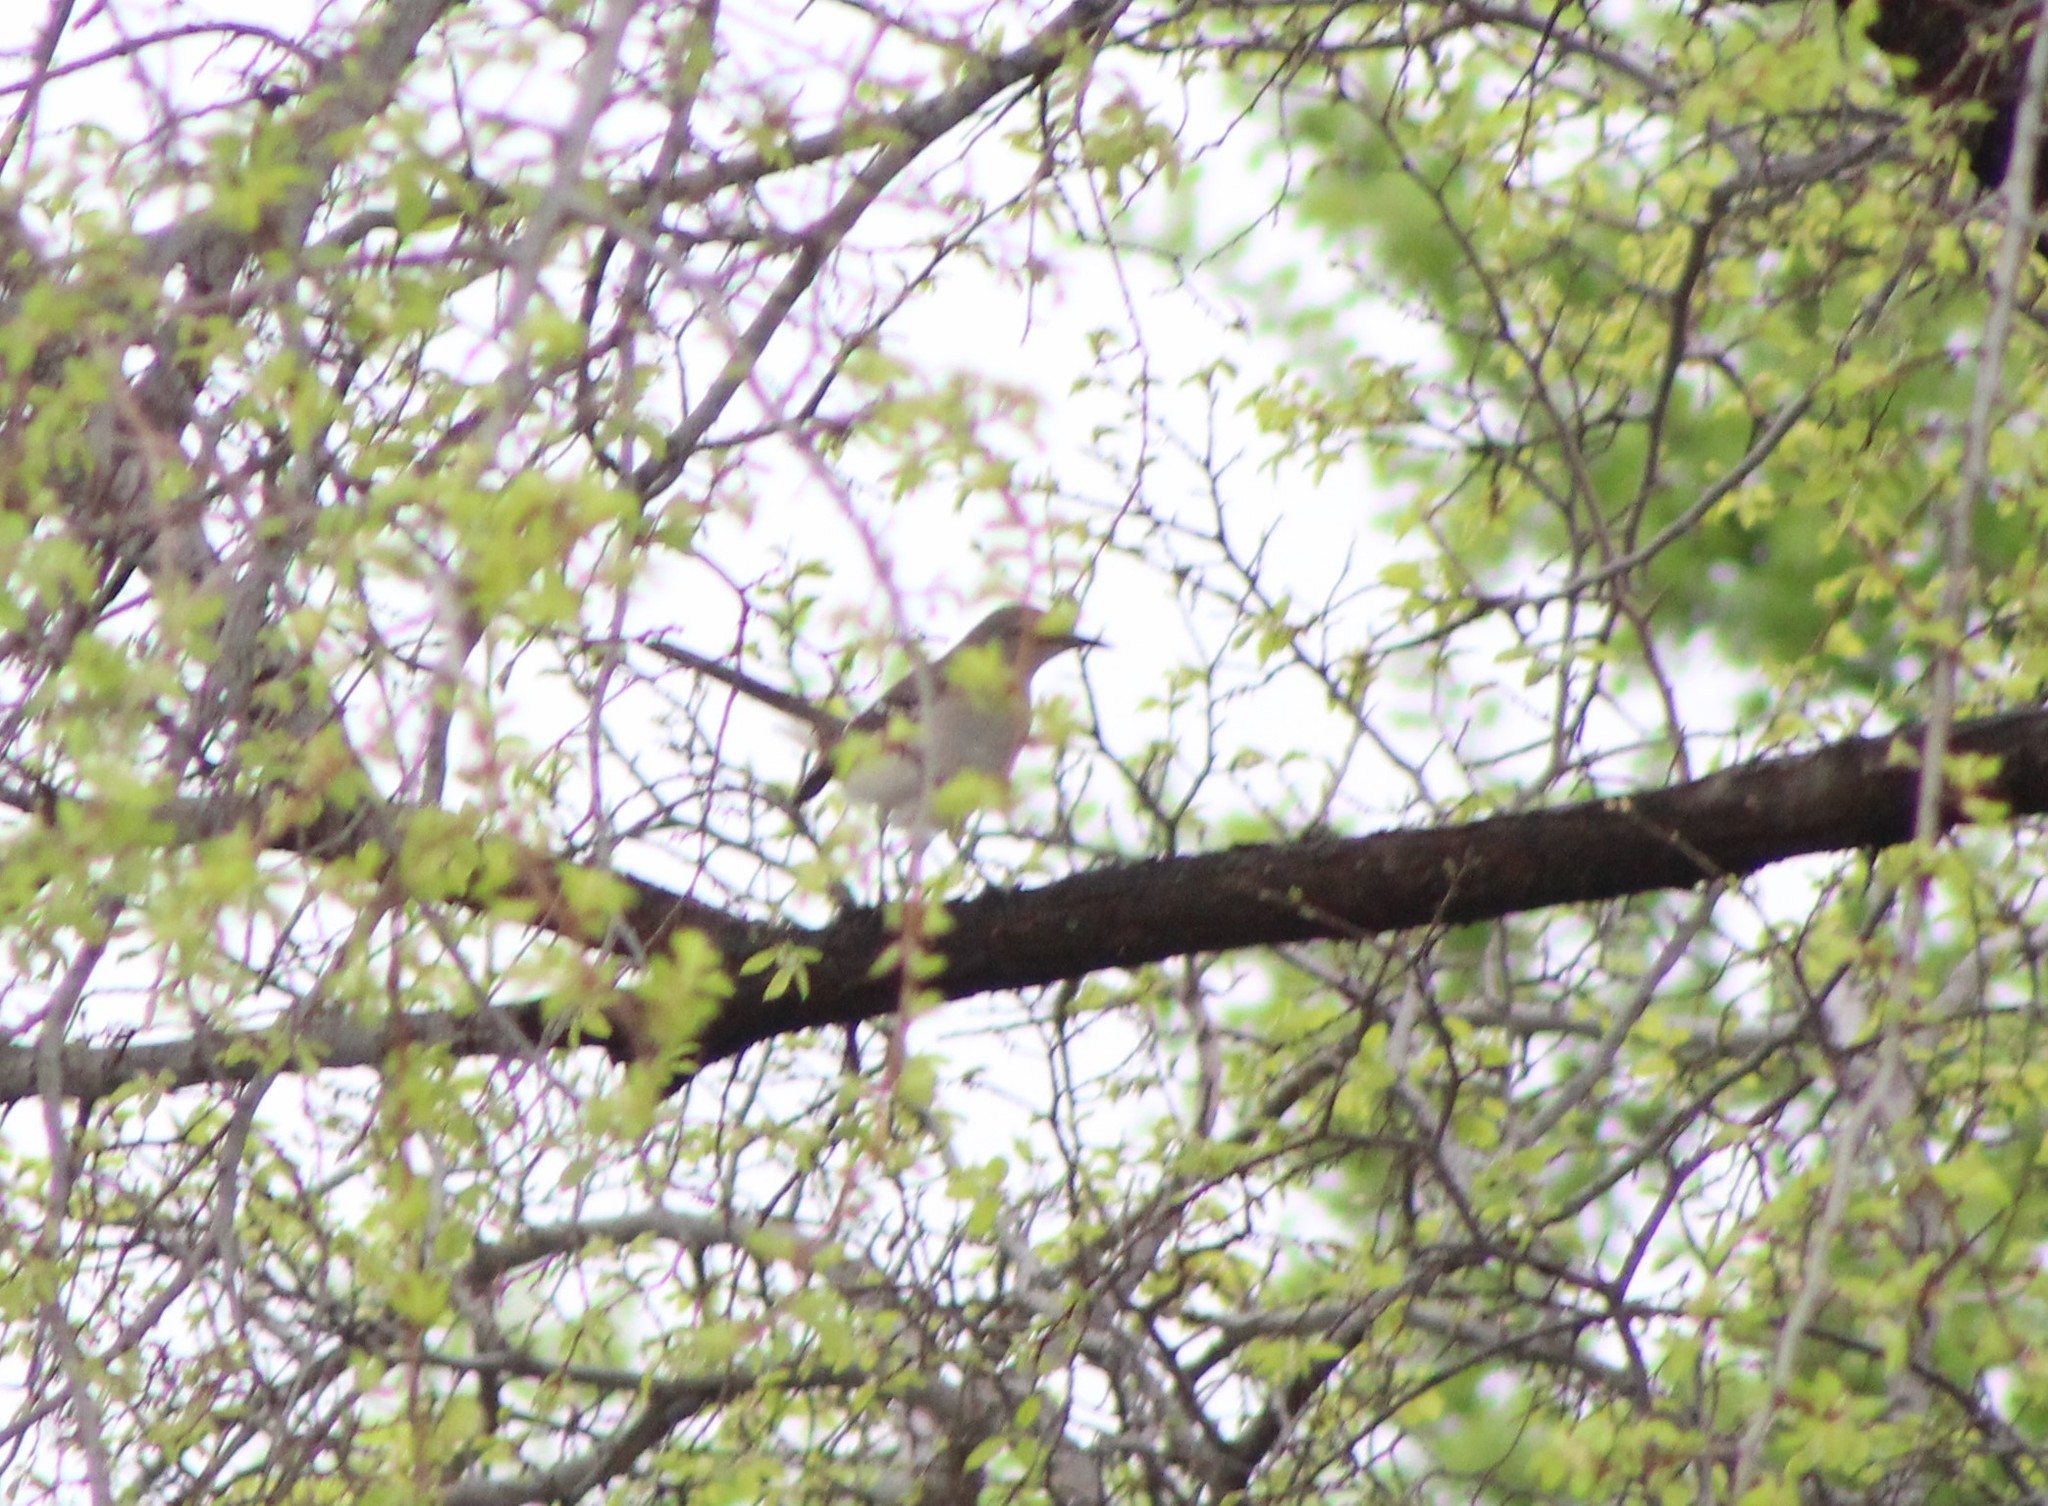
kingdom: Animalia
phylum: Chordata
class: Aves
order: Passeriformes
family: Mimidae
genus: Mimus
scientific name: Mimus polyglottos
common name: Northern mockingbird
